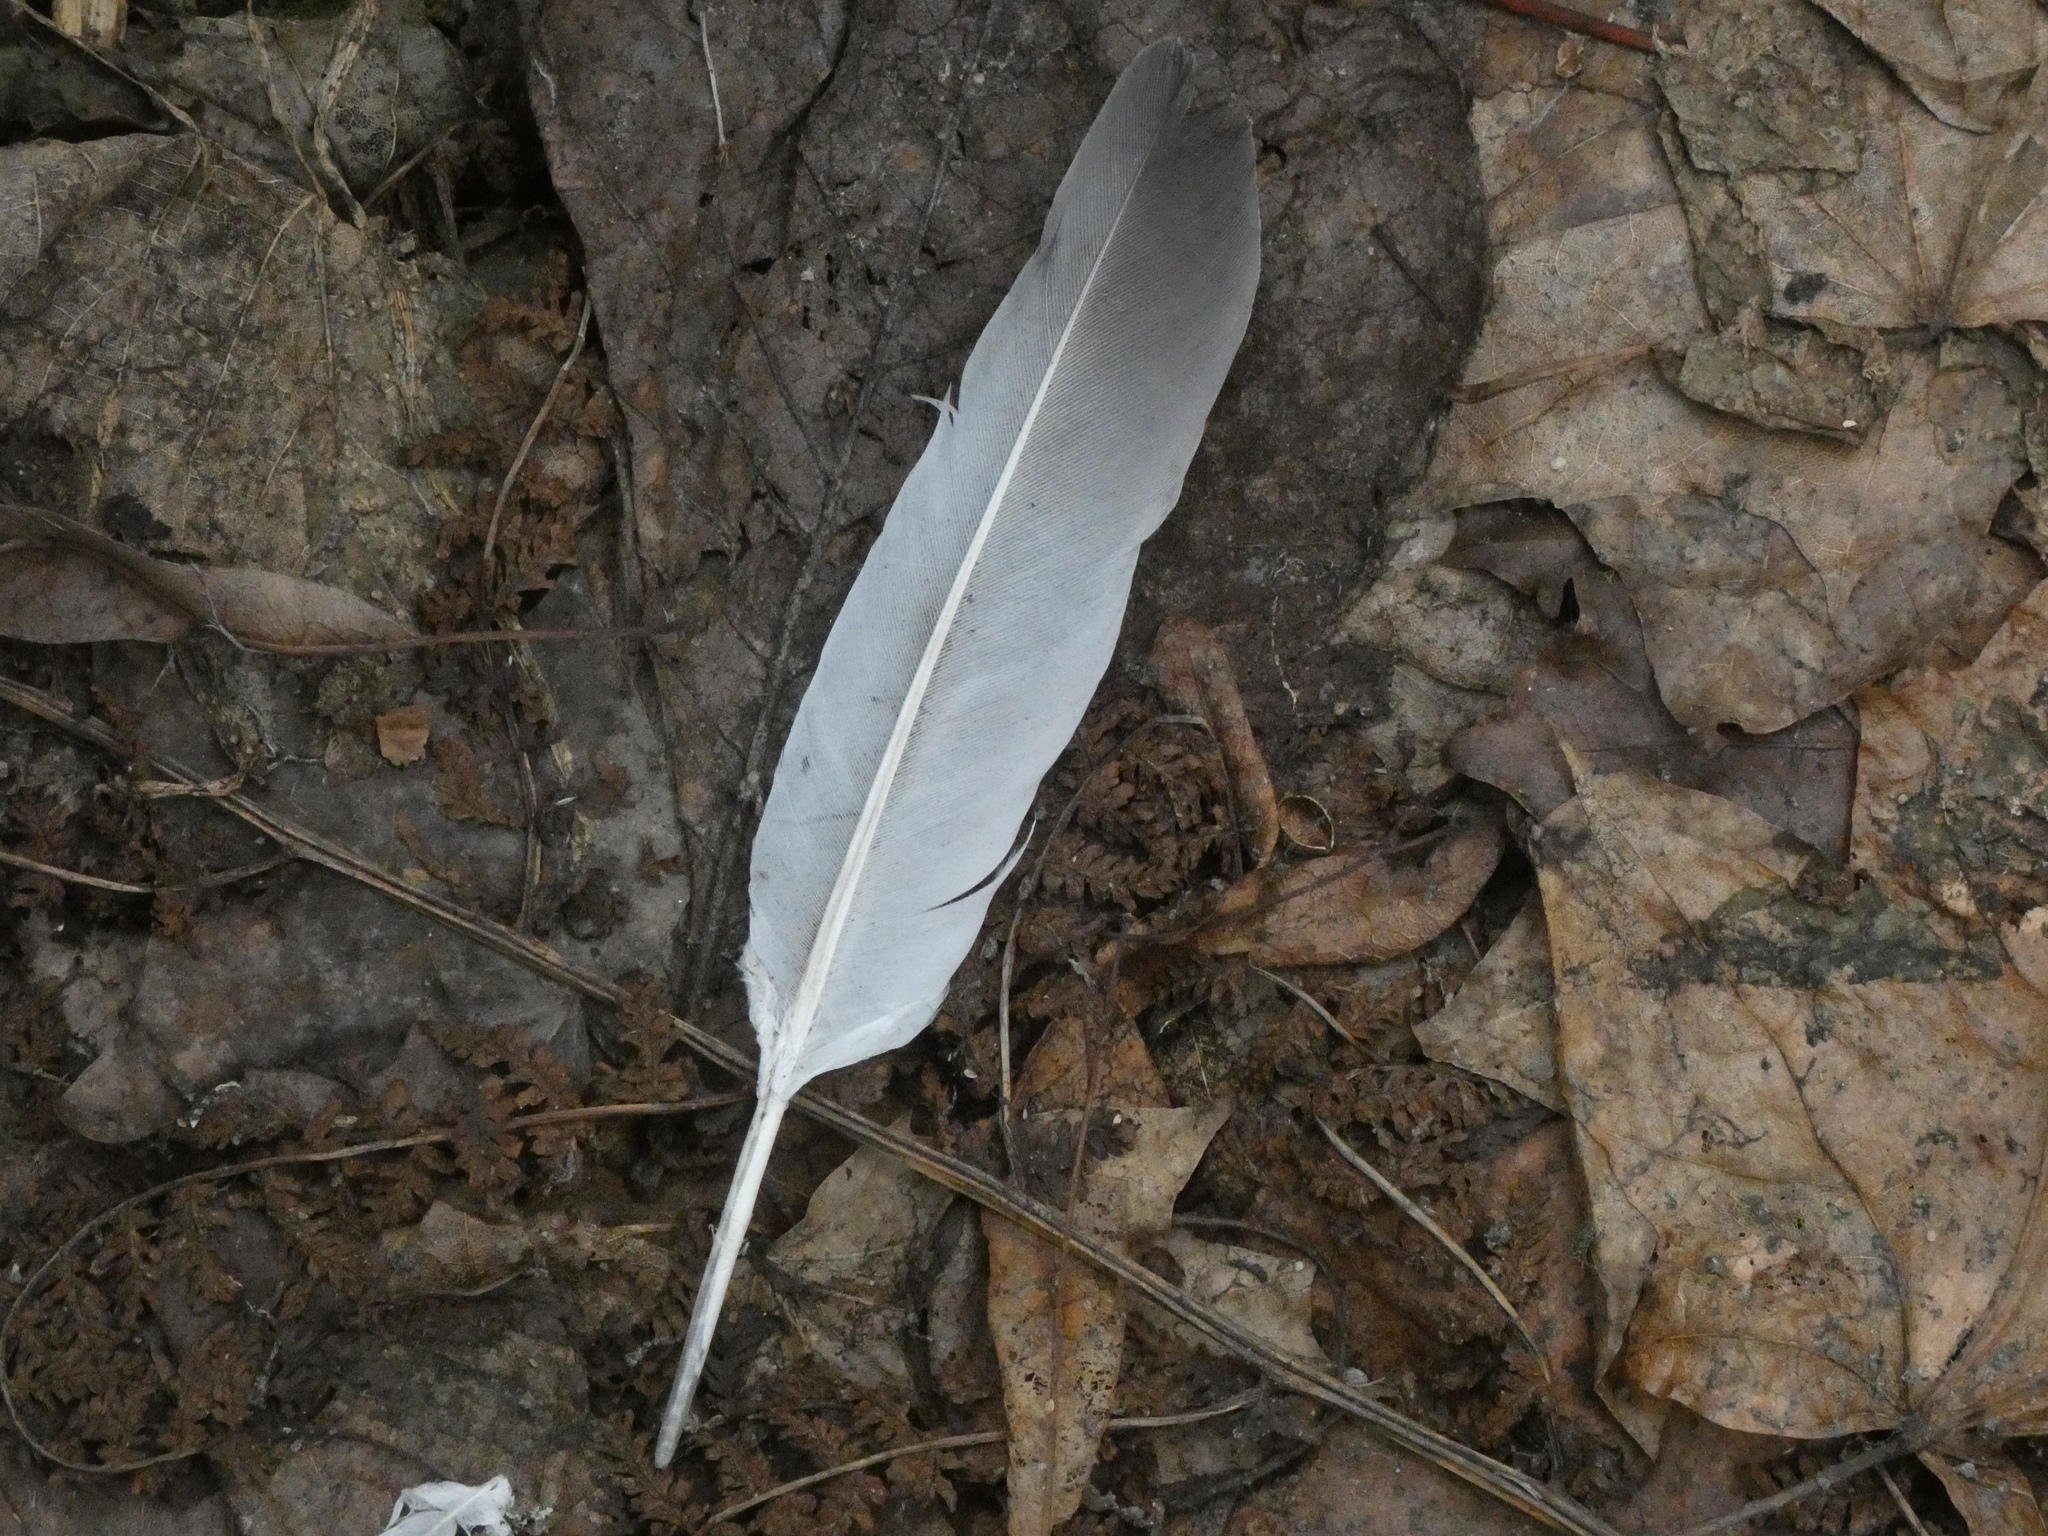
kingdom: Animalia
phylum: Chordata
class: Aves
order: Columbiformes
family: Columbidae
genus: Columba
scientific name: Columba livia
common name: Rock pigeon
